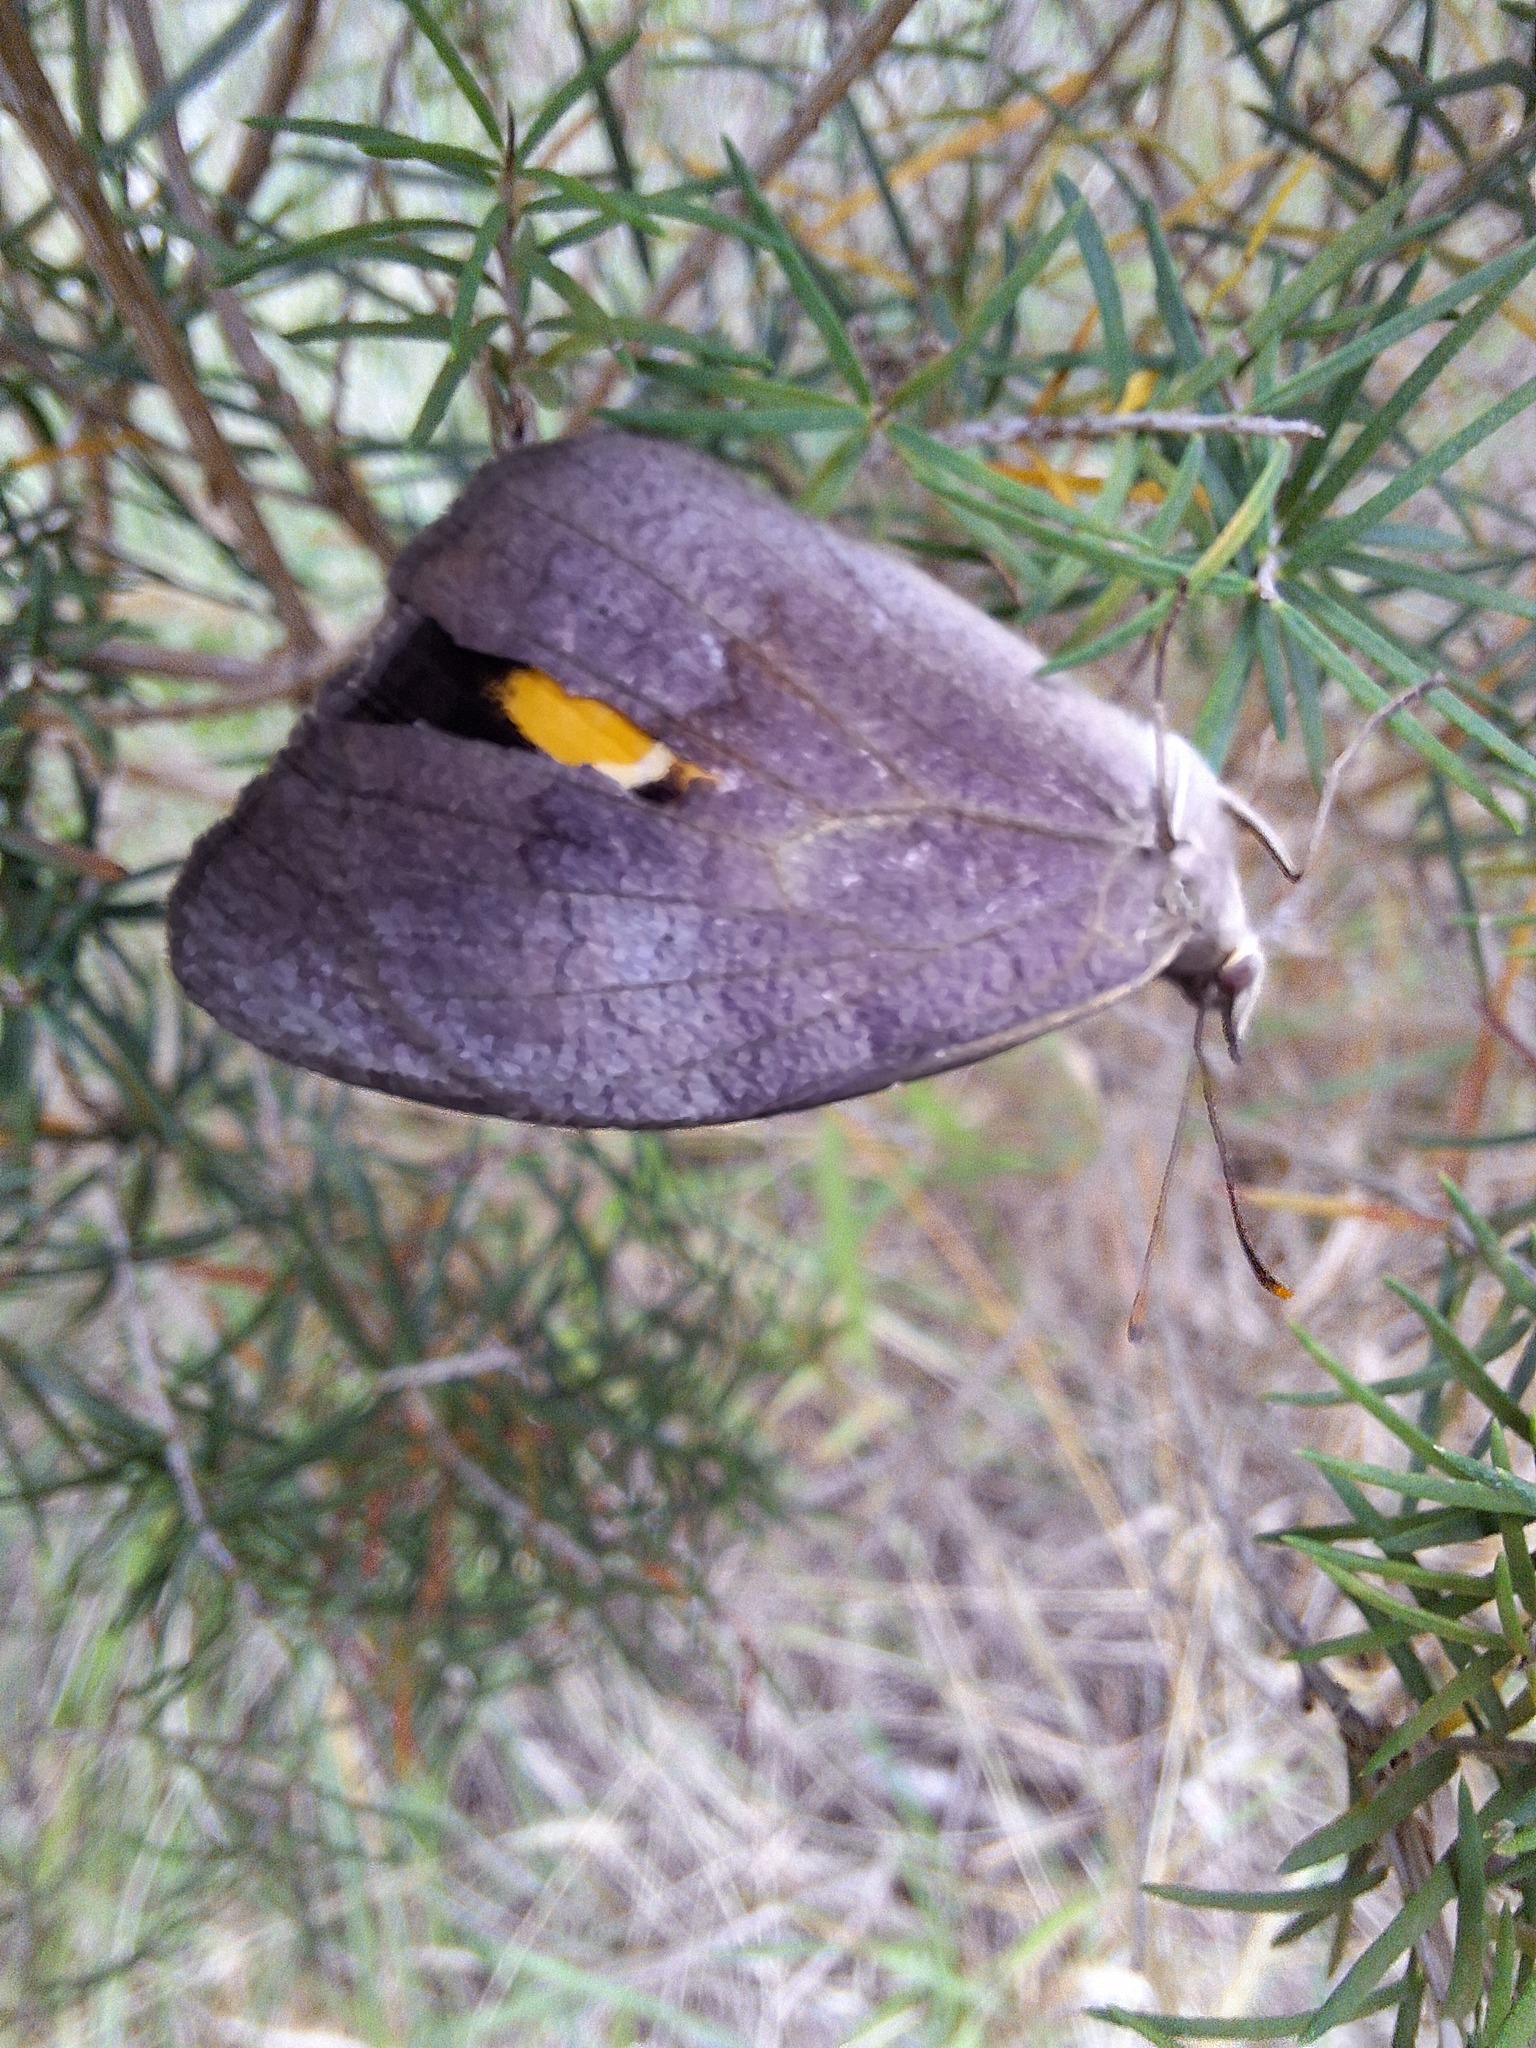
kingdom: Animalia
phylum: Arthropoda
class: Insecta
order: Lepidoptera
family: Nymphalidae
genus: Heteronympha
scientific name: Heteronympha merope
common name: Common brown
